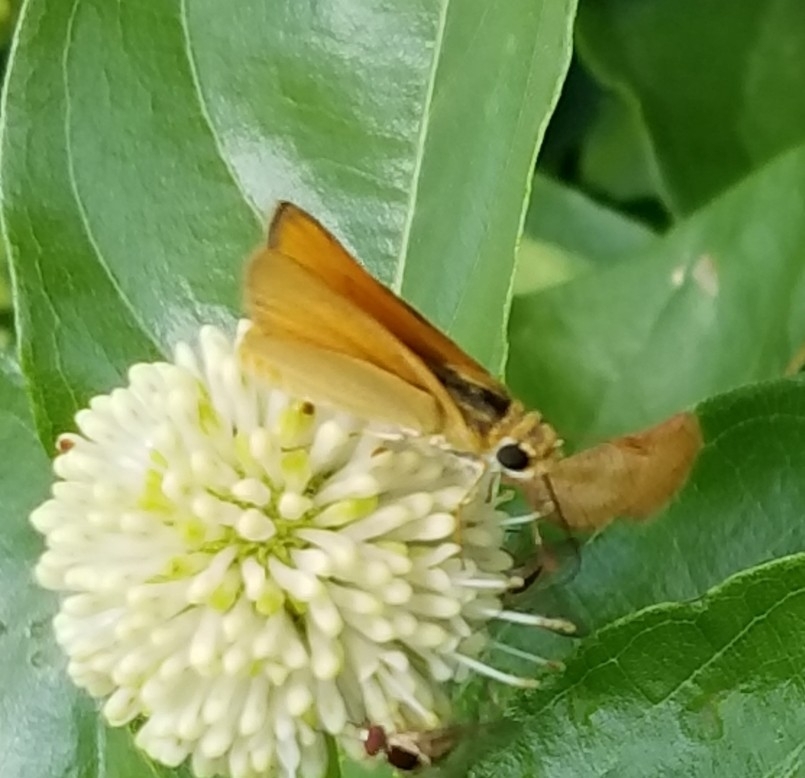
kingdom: Animalia
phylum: Arthropoda
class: Insecta
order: Lepidoptera
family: Hesperiidae
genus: Copaeodes
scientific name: Copaeodes aurantiaca
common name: Orange skipperling
